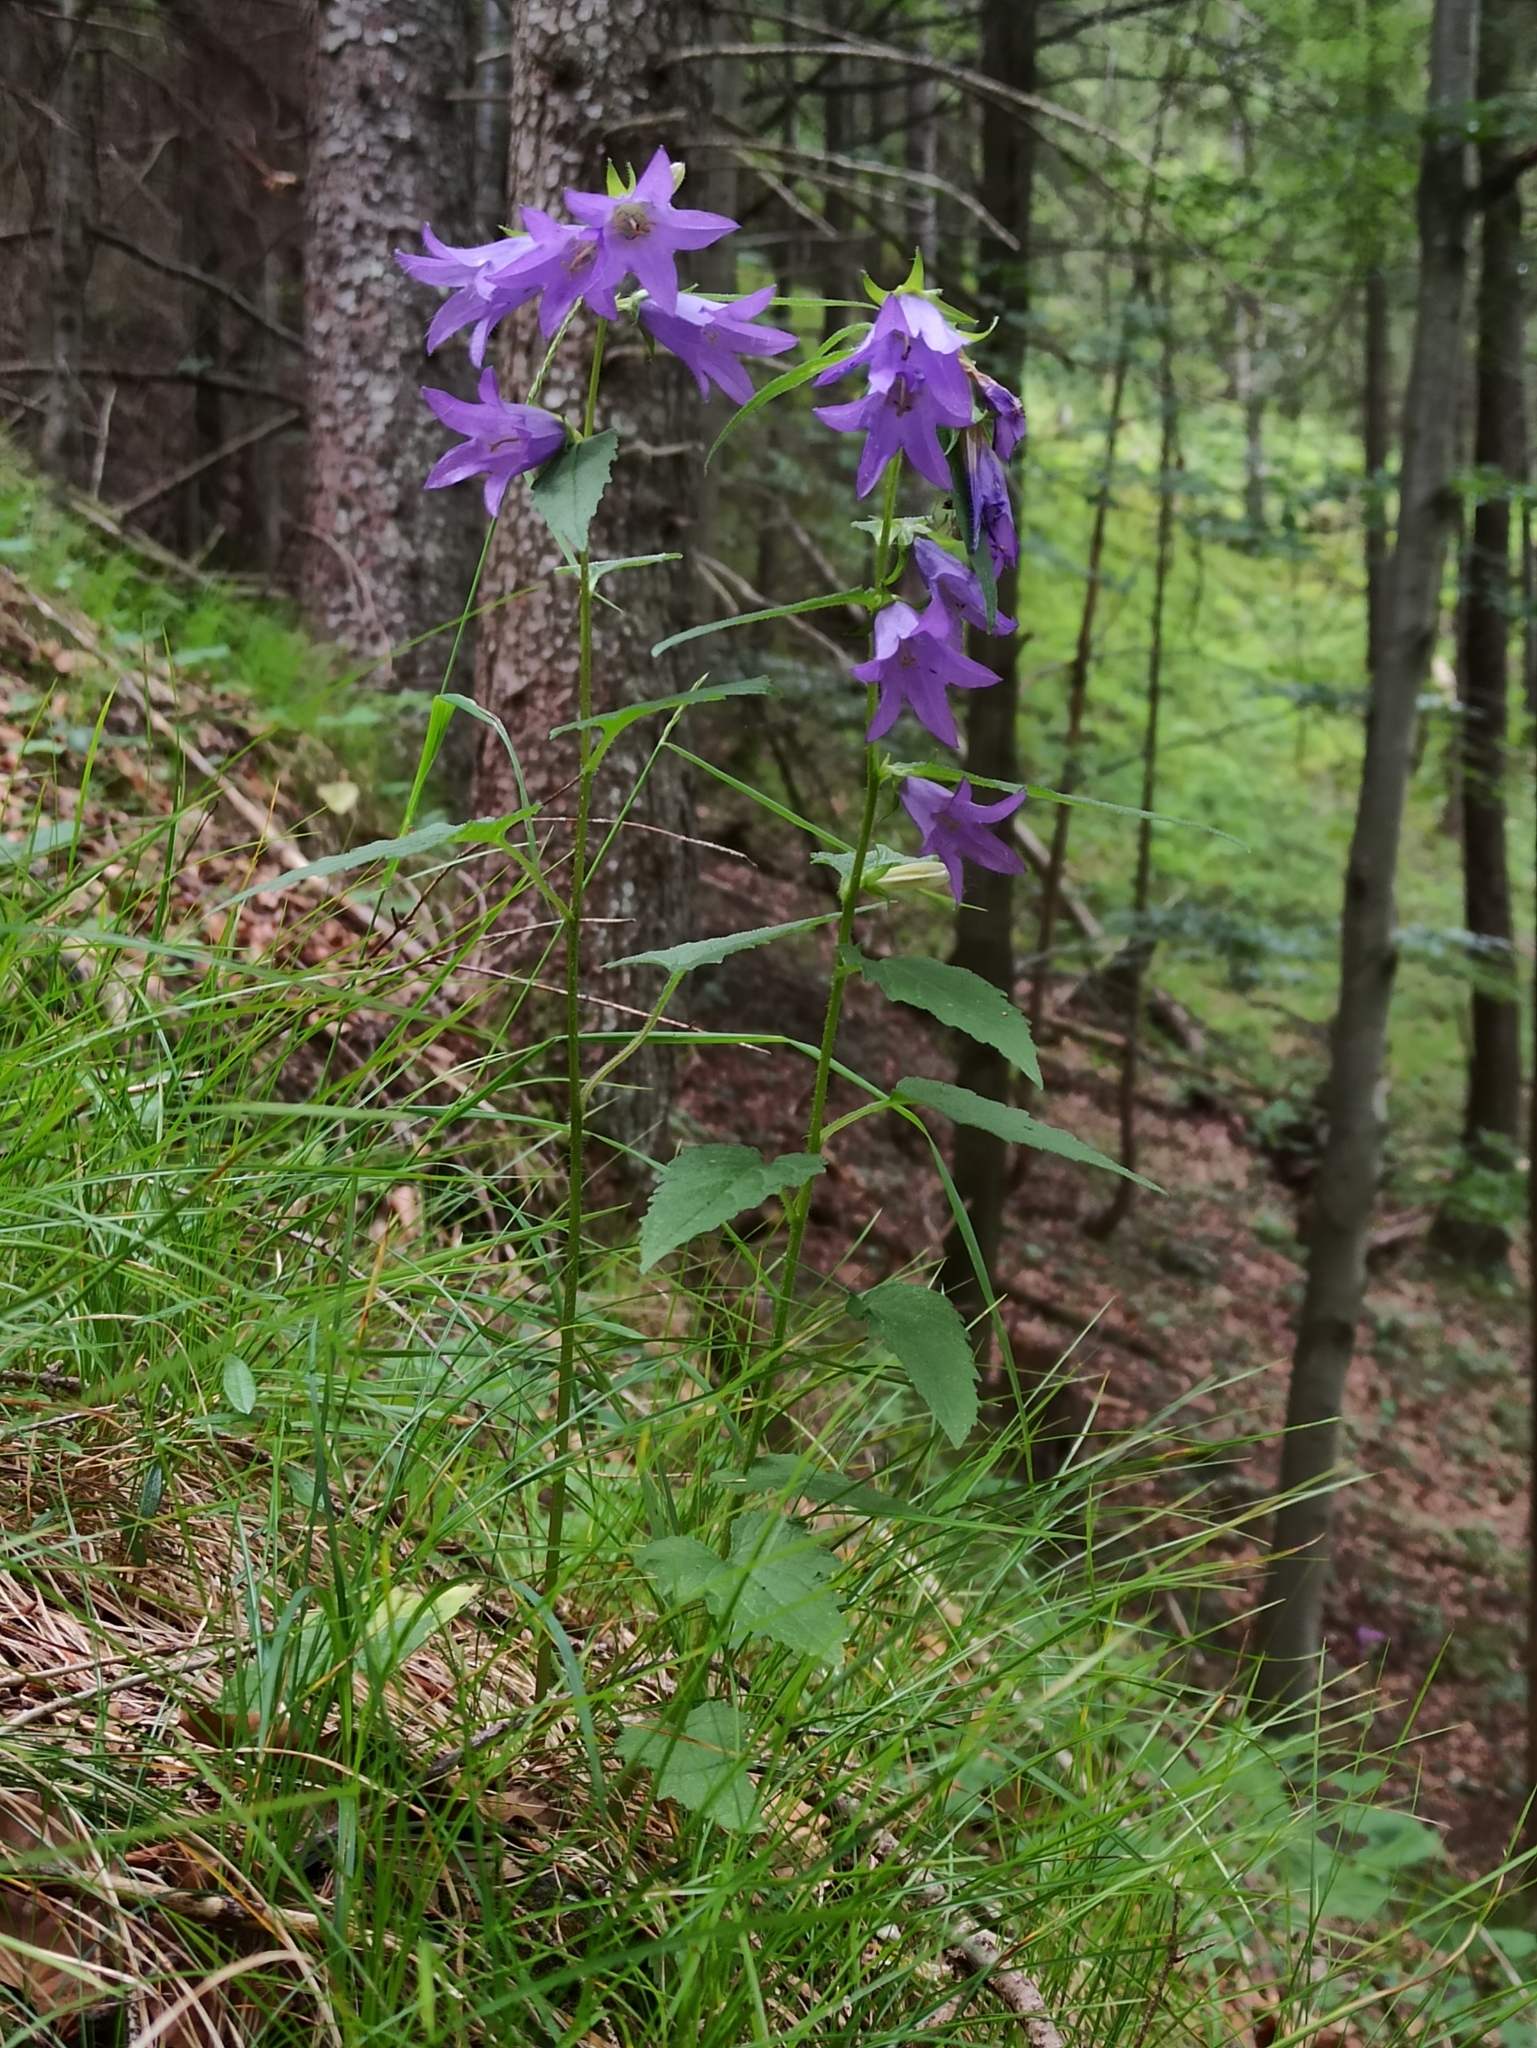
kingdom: Plantae
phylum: Tracheophyta
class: Magnoliopsida
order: Asterales
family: Campanulaceae
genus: Campanula
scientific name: Campanula trachelium
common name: Nettle-leaved bellflower
